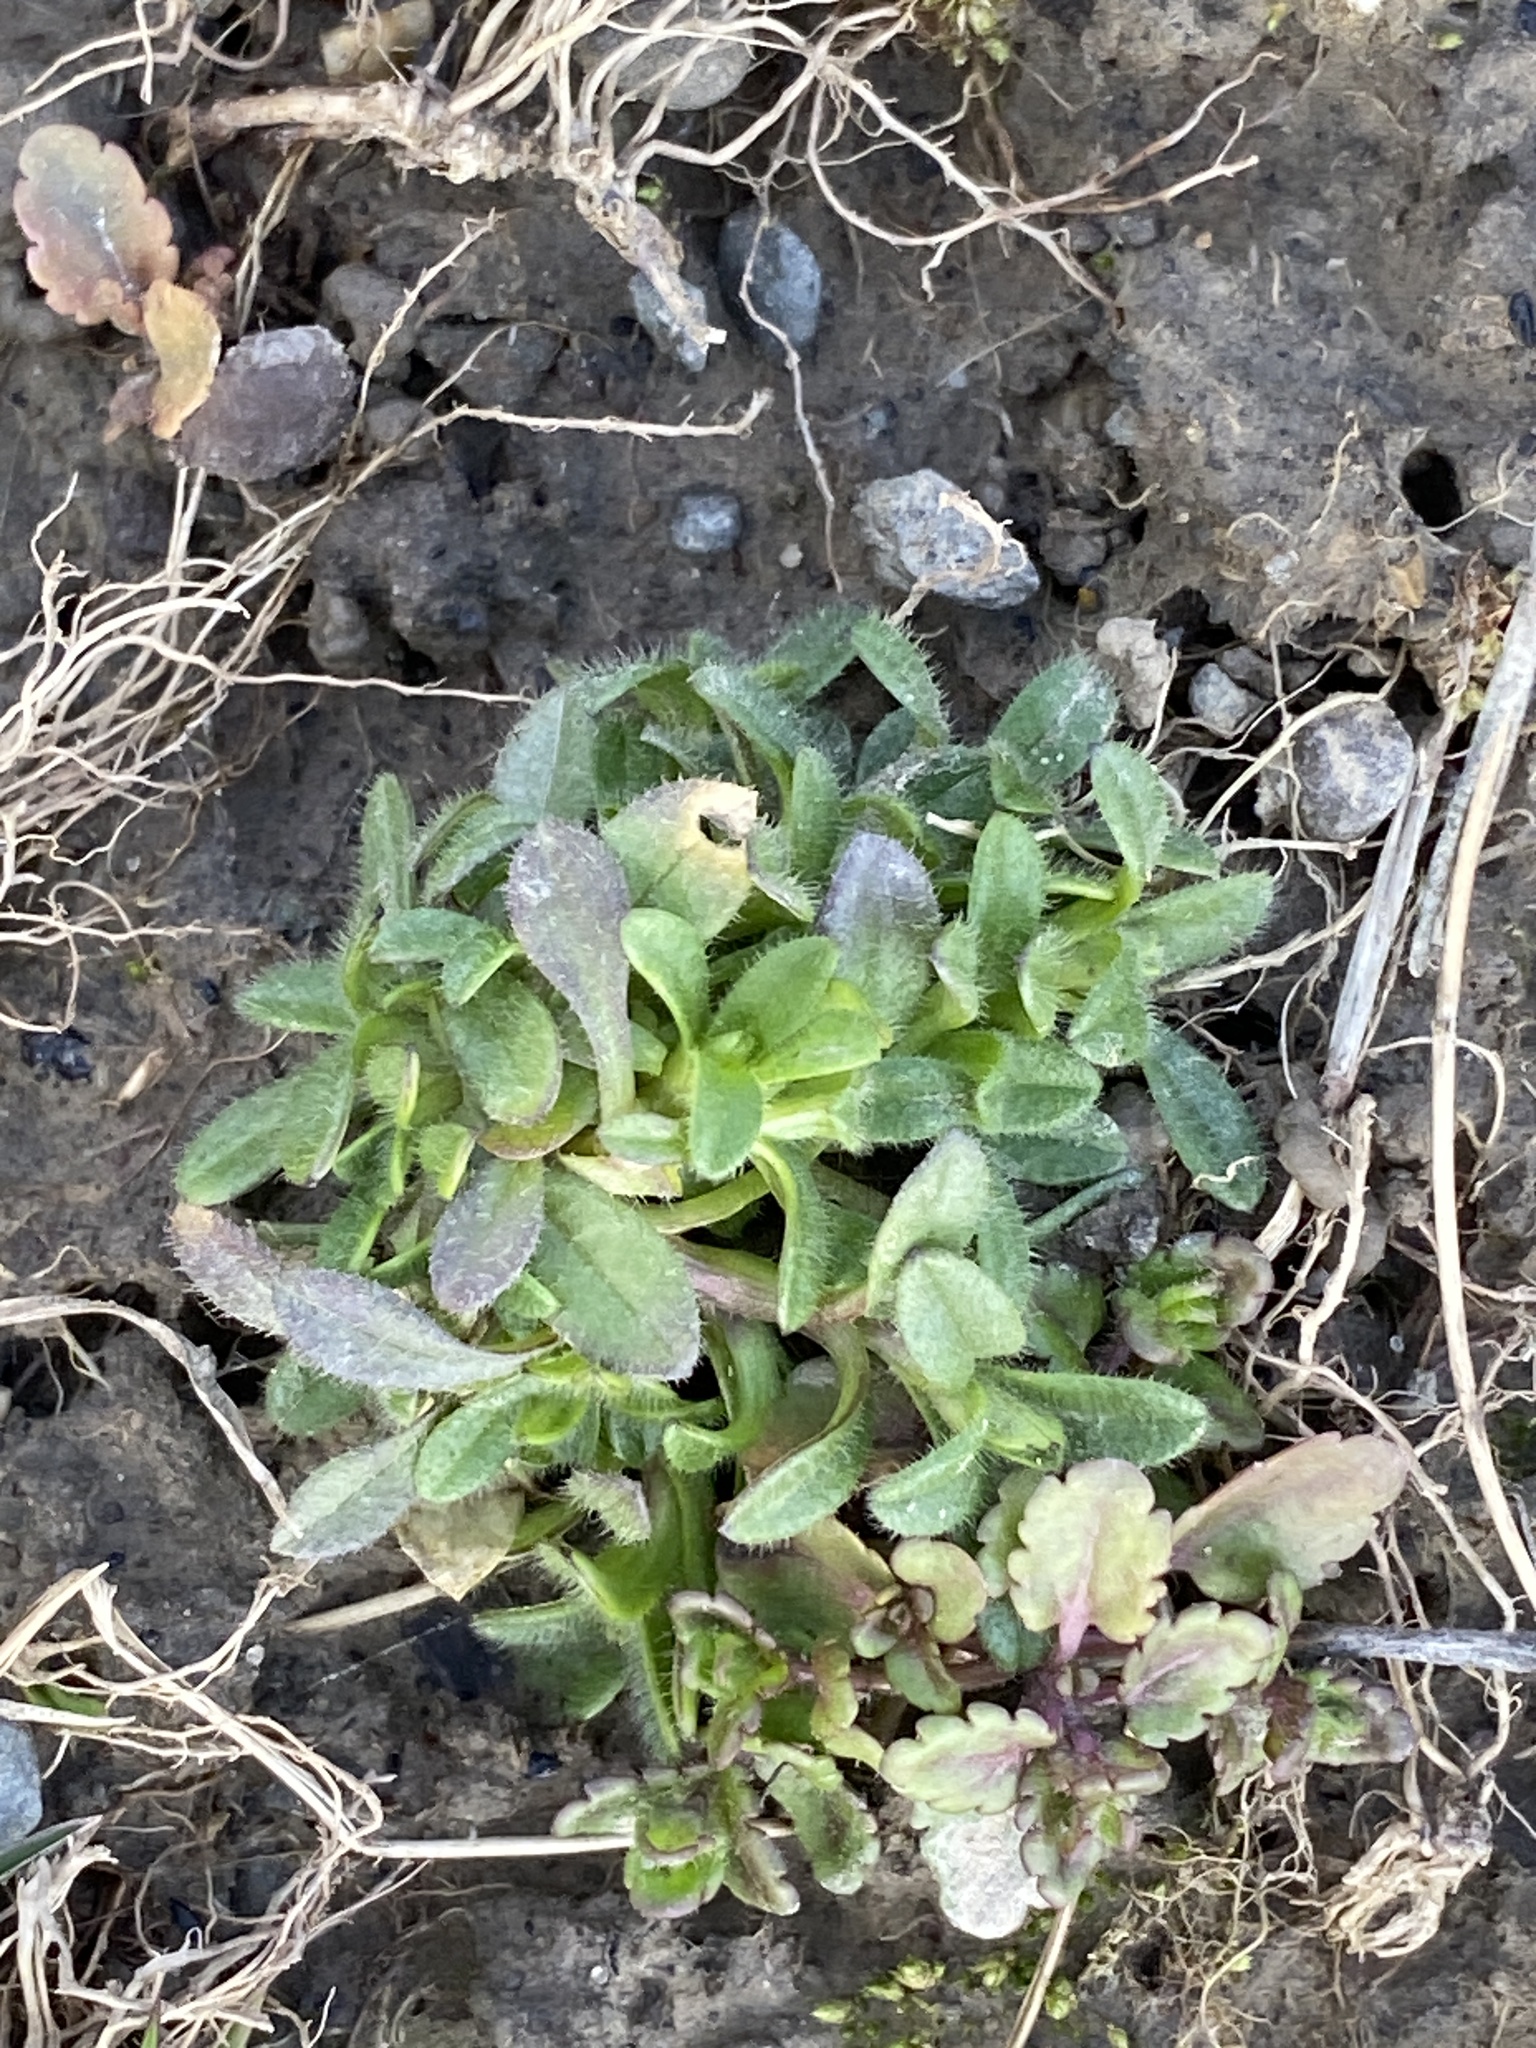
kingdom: Plantae
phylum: Tracheophyta
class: Magnoliopsida
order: Caryophyllales
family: Caryophyllaceae
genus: Cerastium
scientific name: Cerastium fontanum
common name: Common mouse-ear
